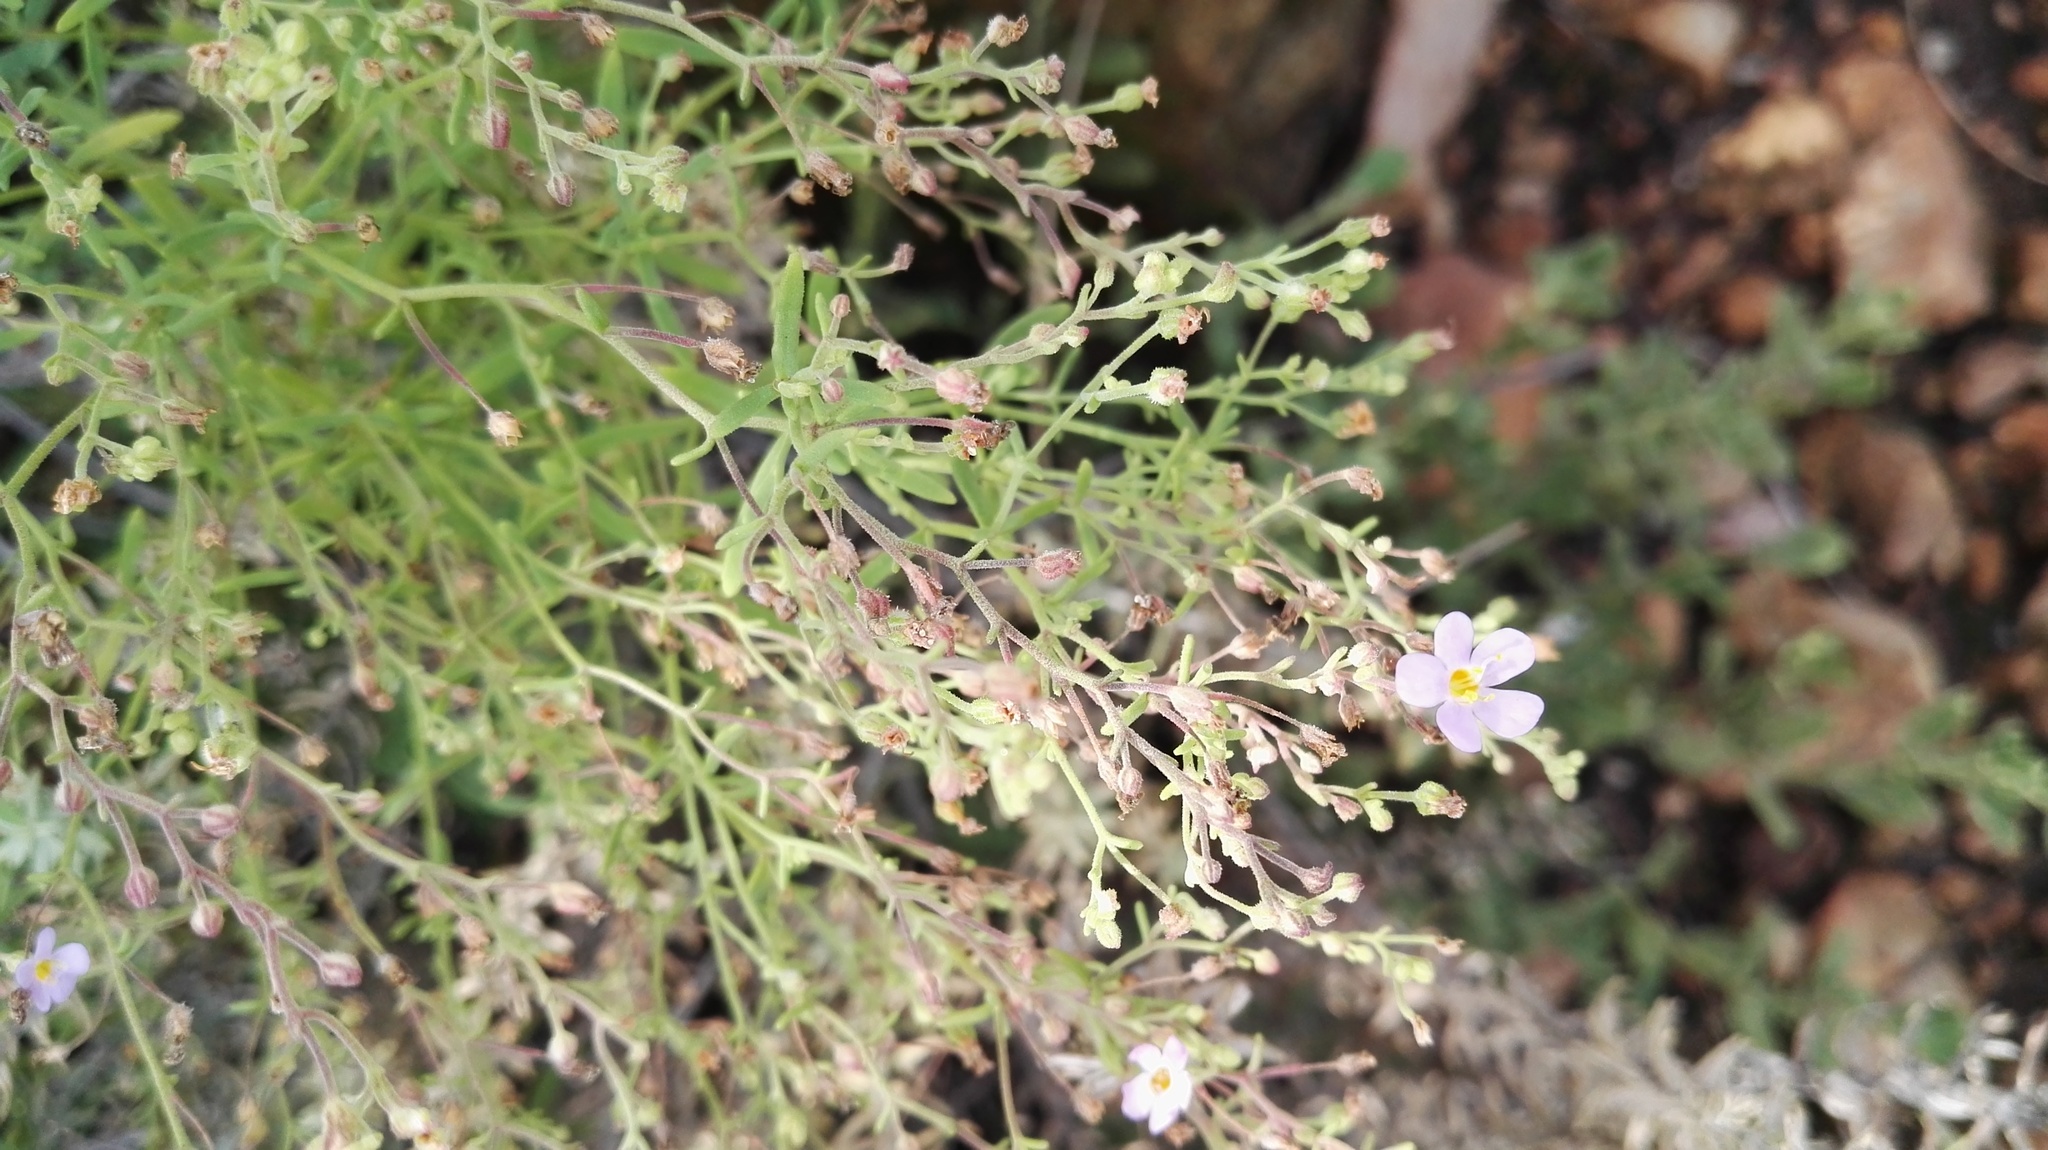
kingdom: Plantae
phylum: Tracheophyta
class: Magnoliopsida
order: Lamiales
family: Scrophulariaceae
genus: Chaenostoma
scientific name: Chaenostoma leve
